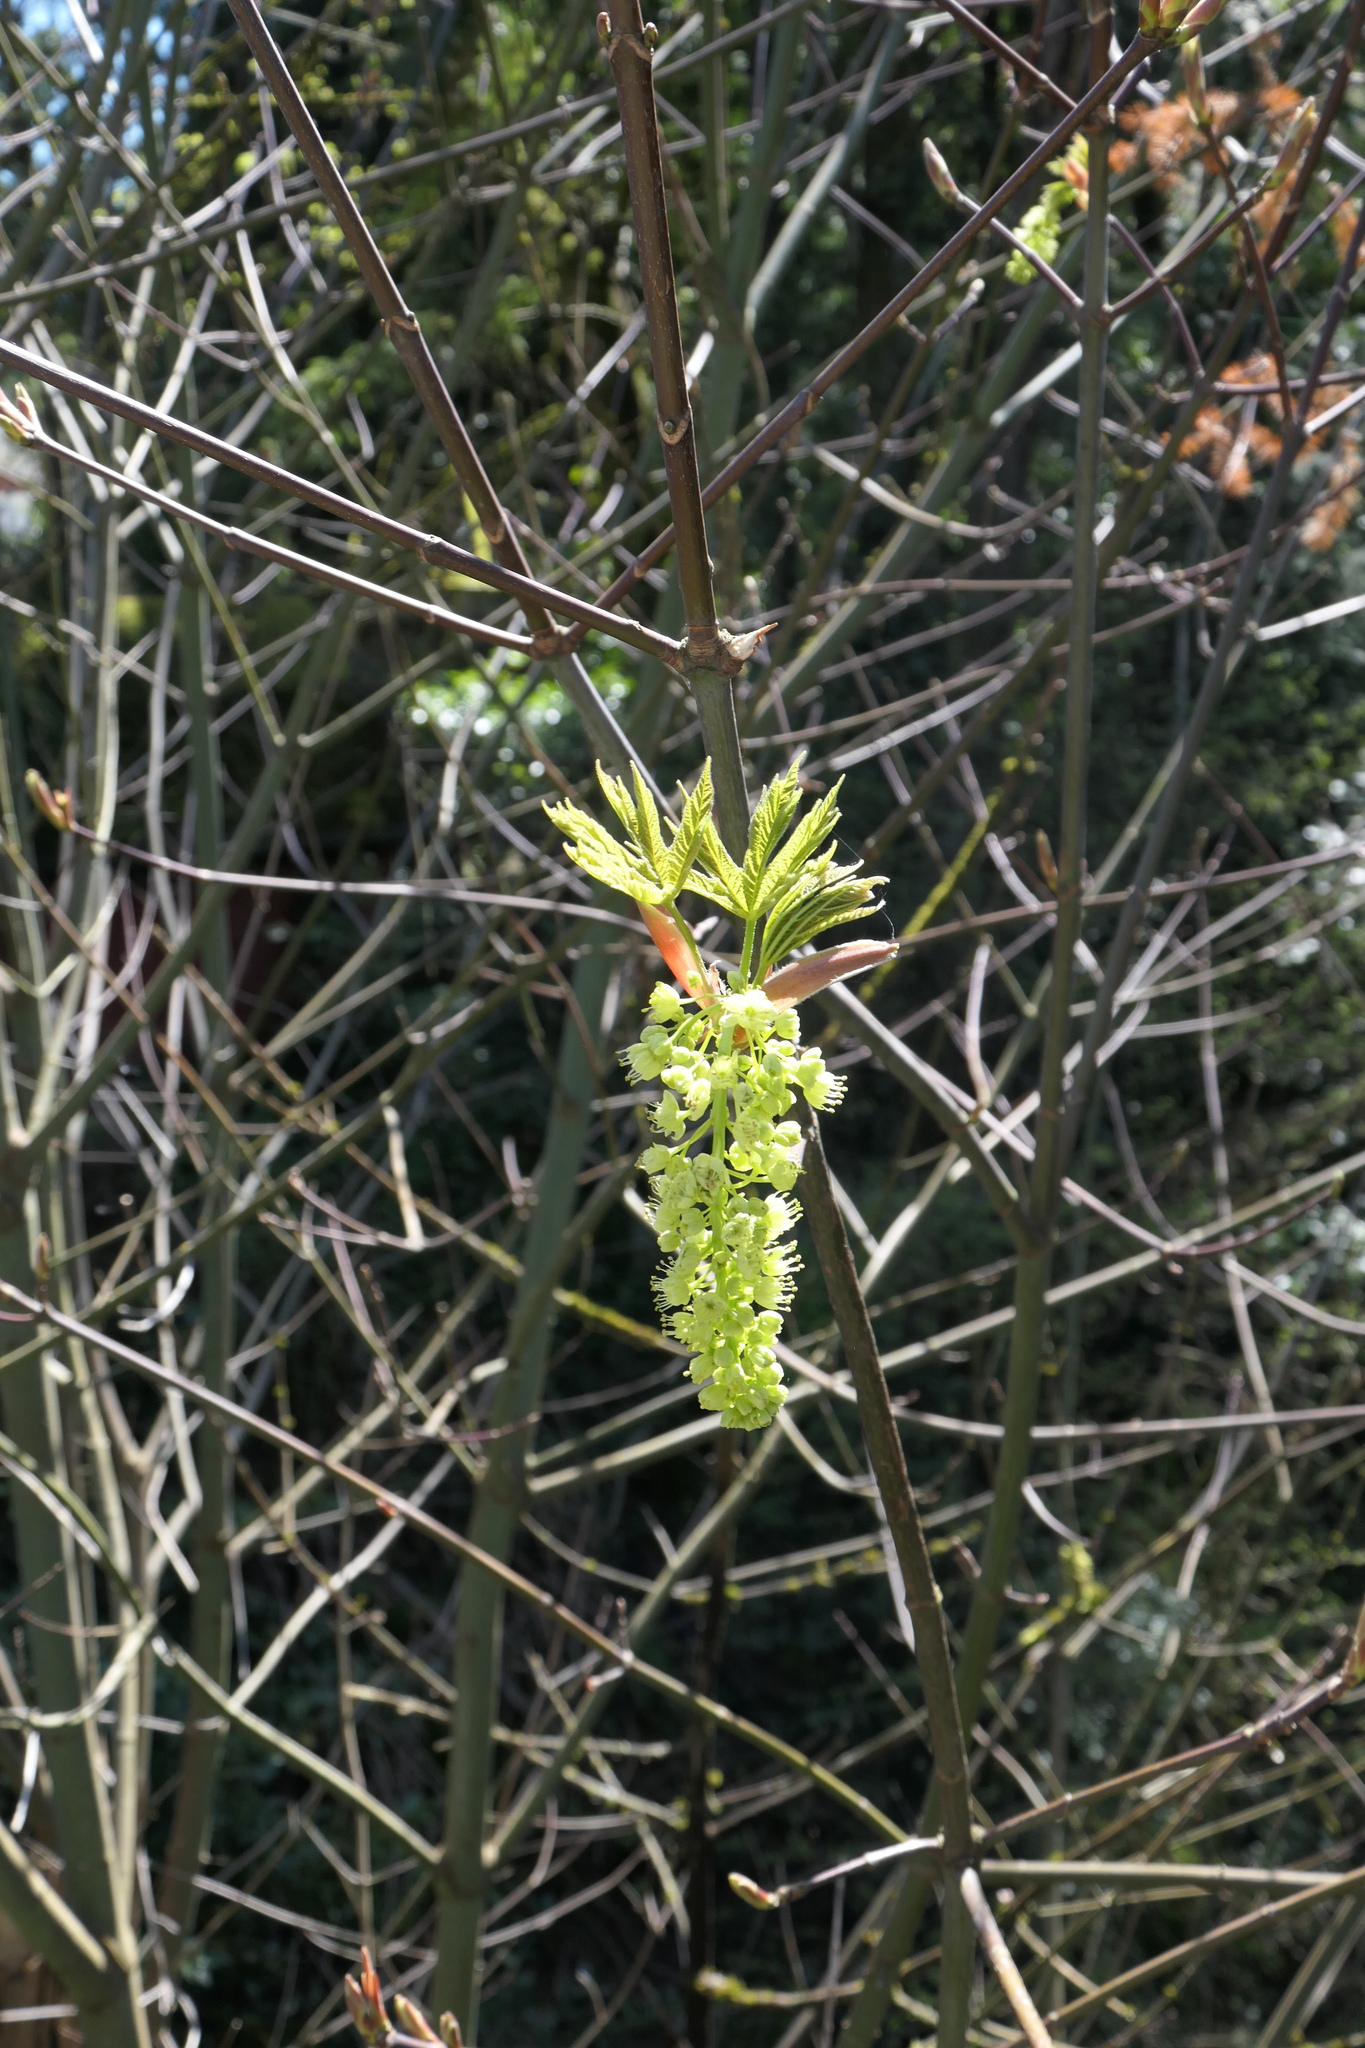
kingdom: Plantae
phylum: Tracheophyta
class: Magnoliopsida
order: Sapindales
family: Sapindaceae
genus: Acer
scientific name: Acer macrophyllum
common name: Oregon maple
